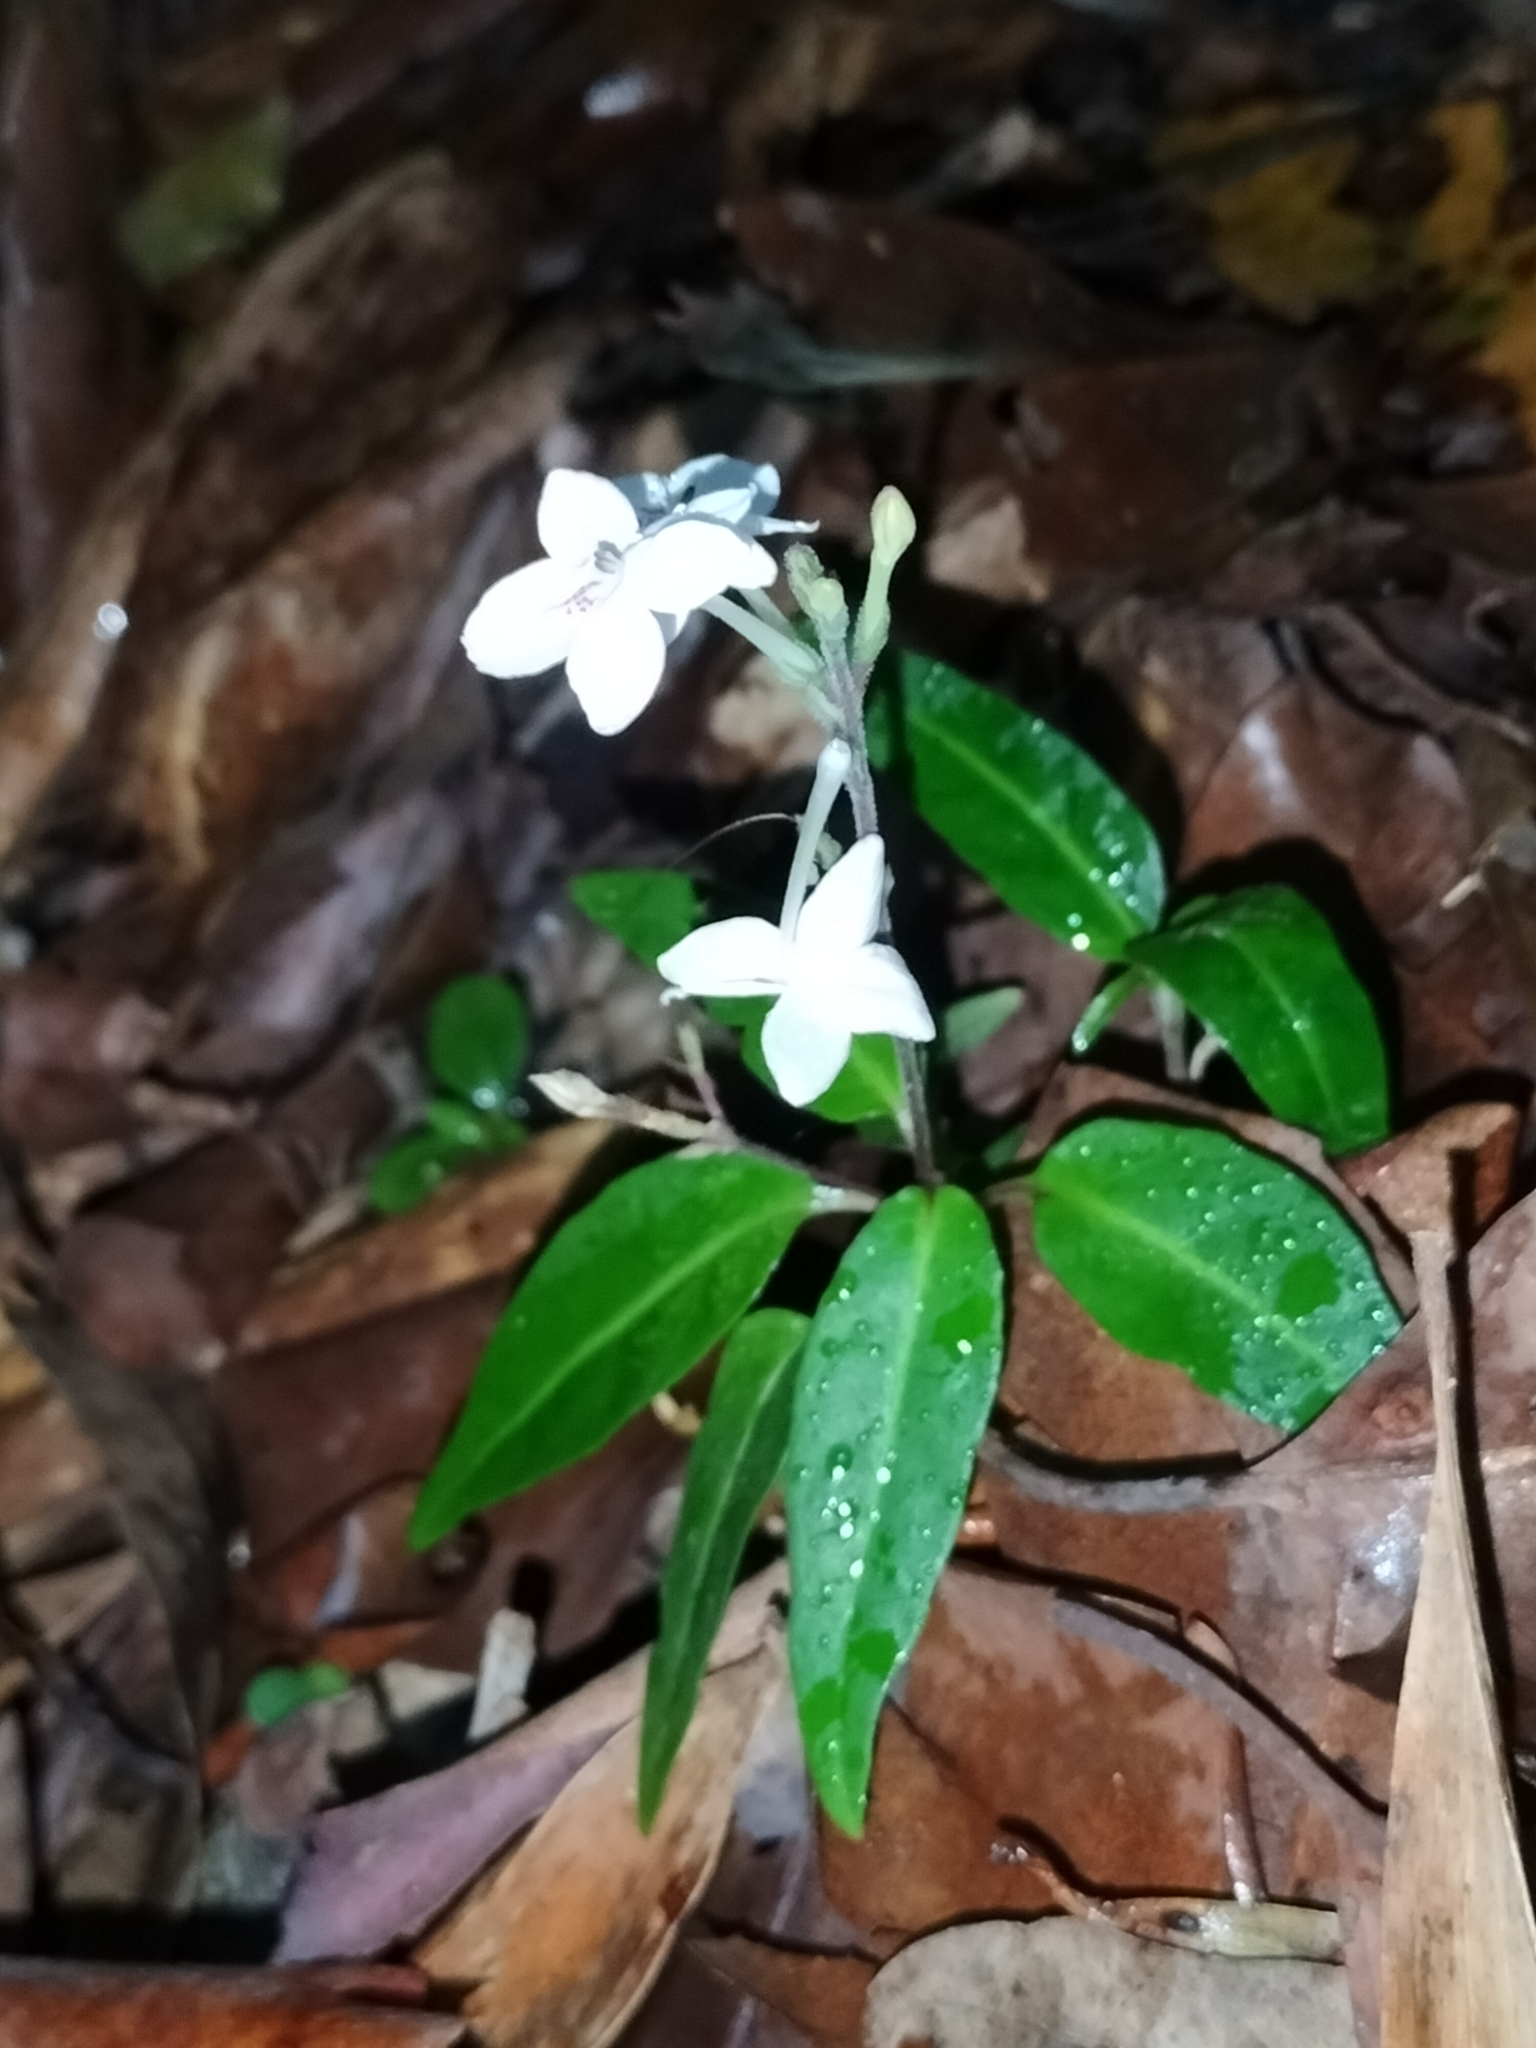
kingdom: Plantae
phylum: Tracheophyta
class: Magnoliopsida
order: Lamiales
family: Acanthaceae
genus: Pseuderanthemum
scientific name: Pseuderanthemum variabile
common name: Night and afternoon
